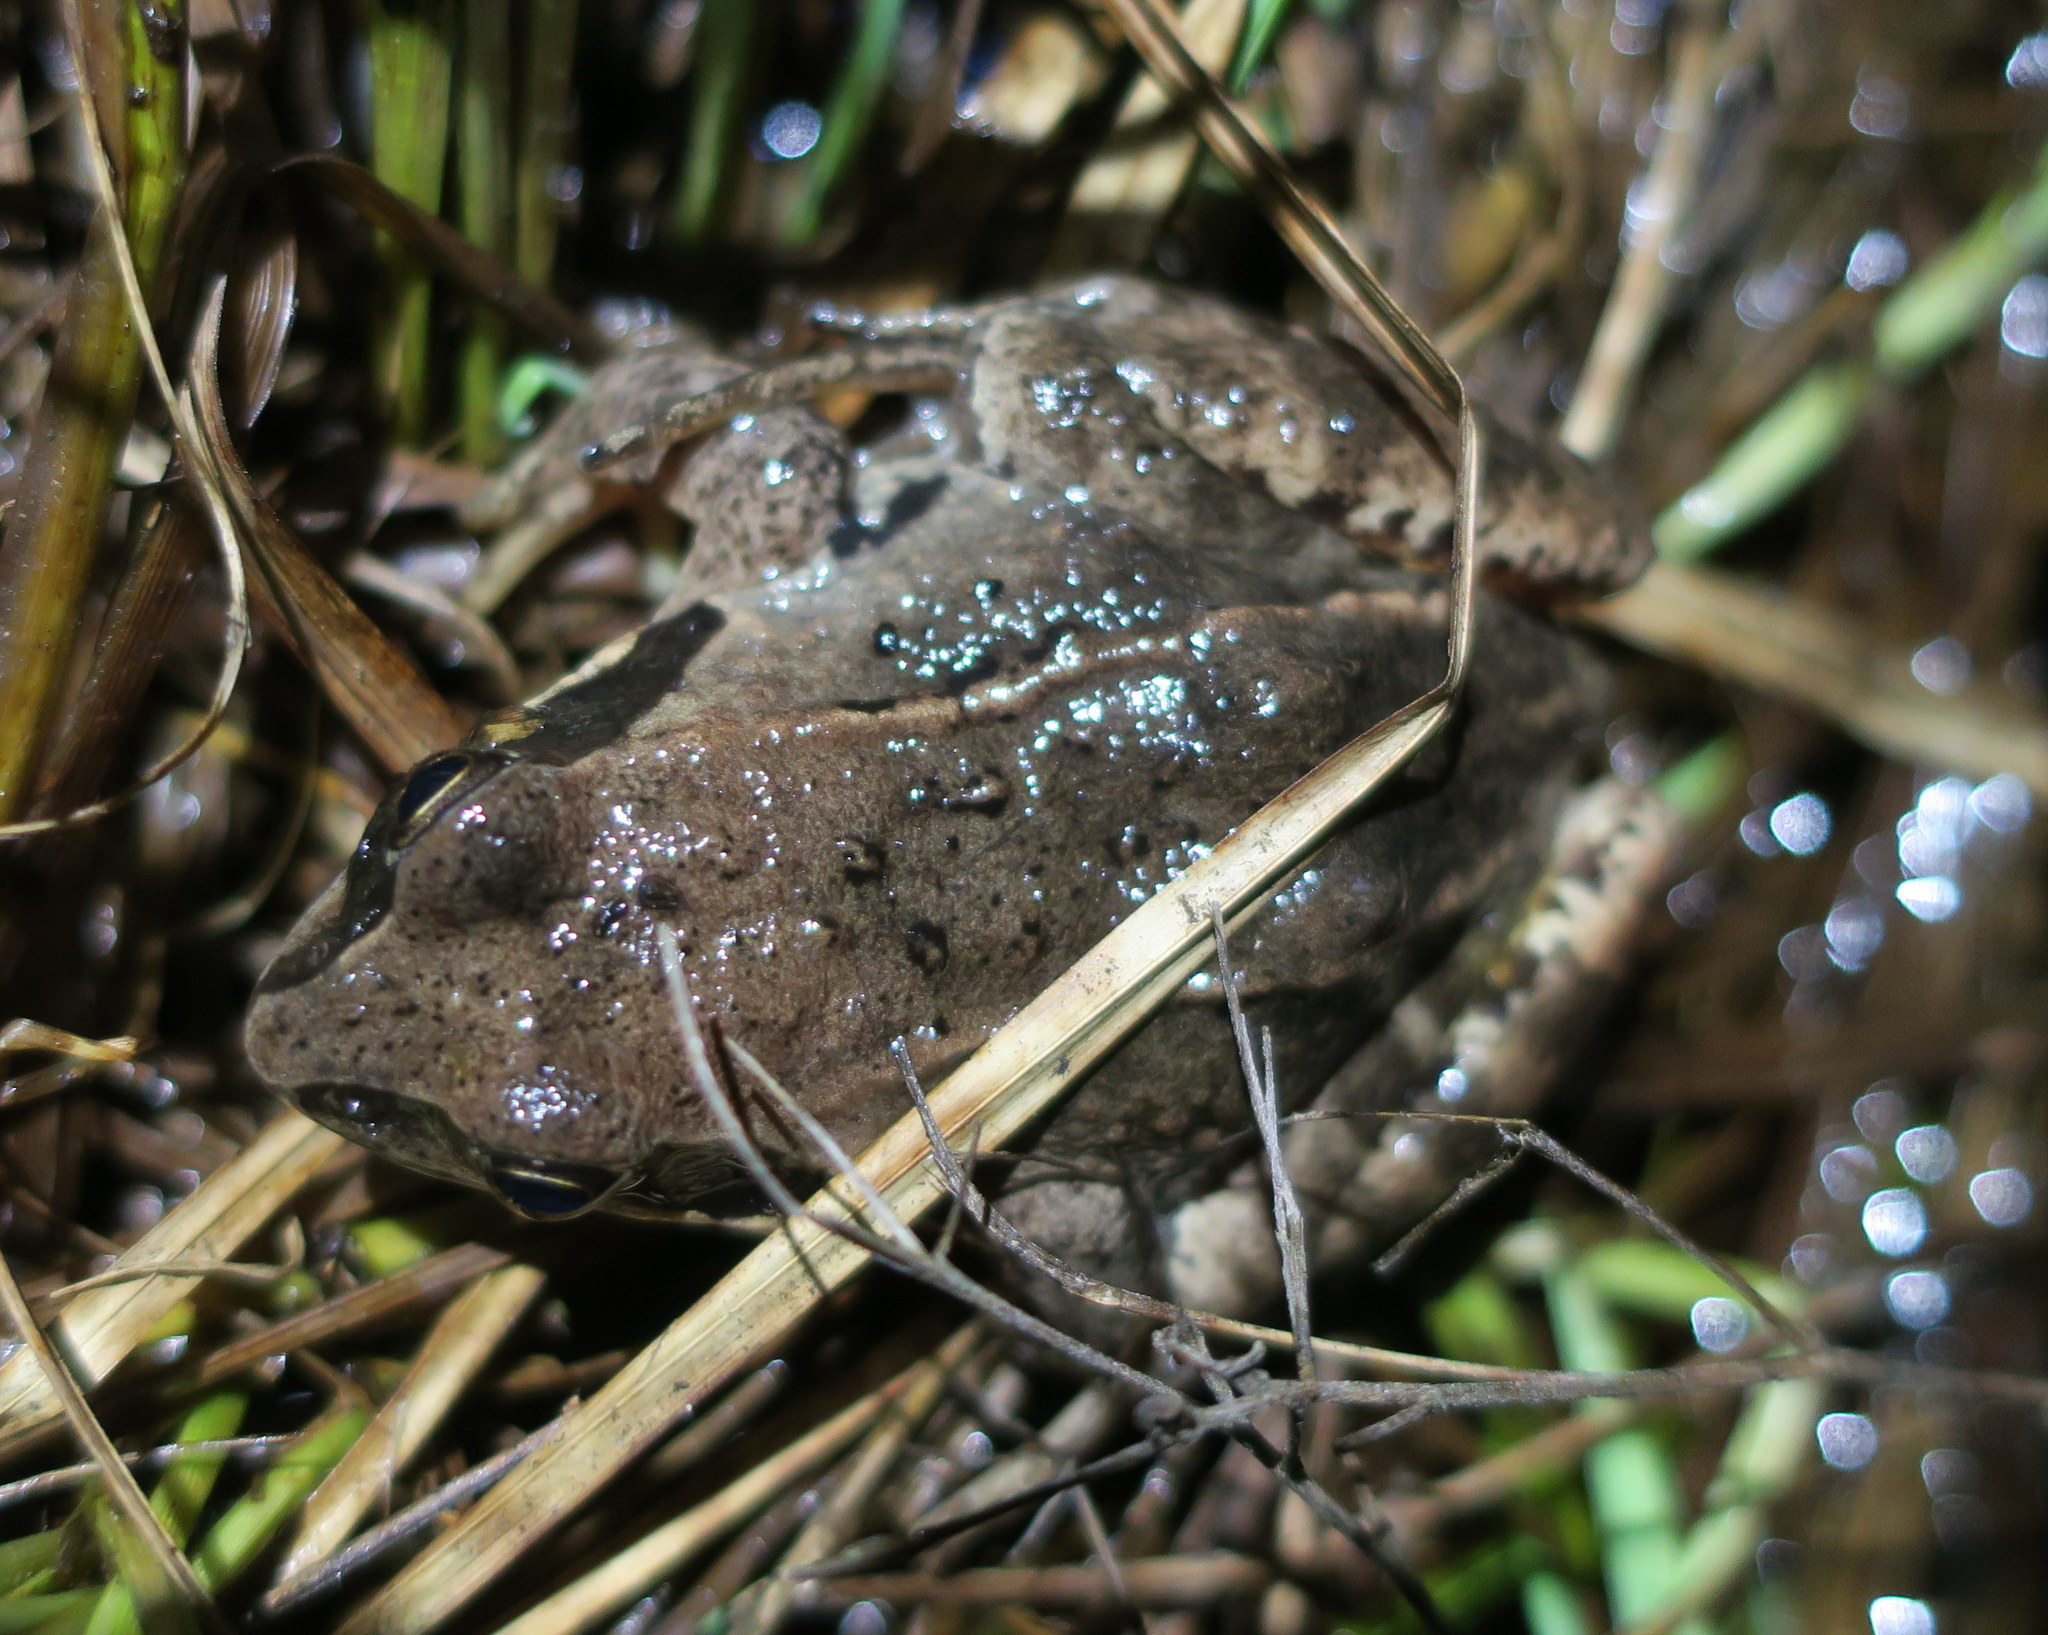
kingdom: Animalia
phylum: Chordata
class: Amphibia
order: Anura
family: Ranidae
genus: Rana
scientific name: Rana arvalis
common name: Moor frog
